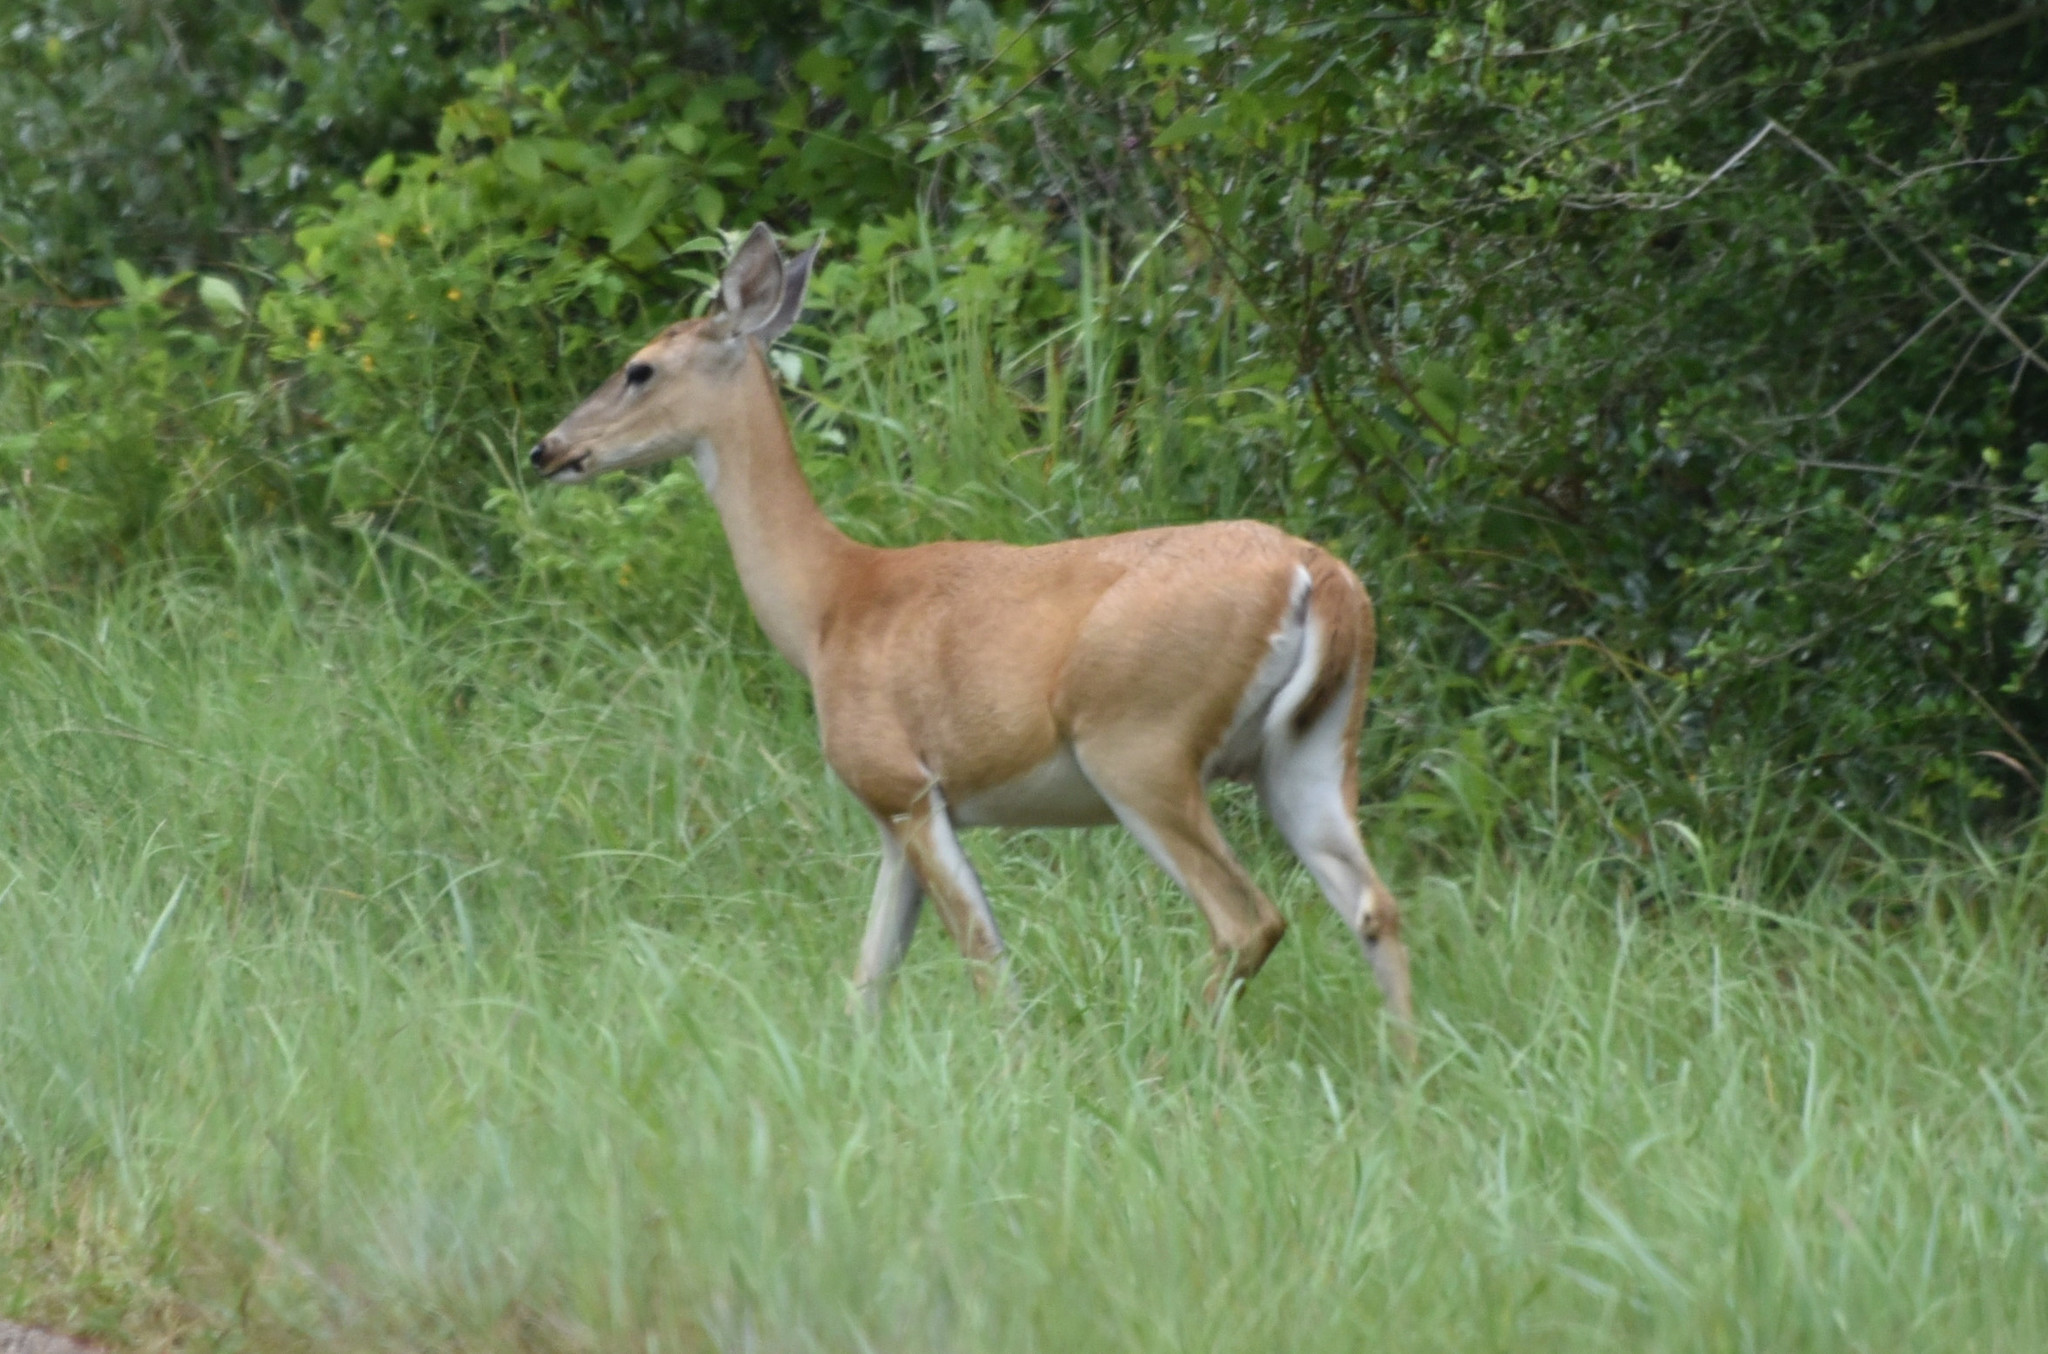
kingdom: Animalia
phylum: Chordata
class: Mammalia
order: Artiodactyla
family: Cervidae
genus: Odocoileus
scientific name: Odocoileus virginianus
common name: White-tailed deer
